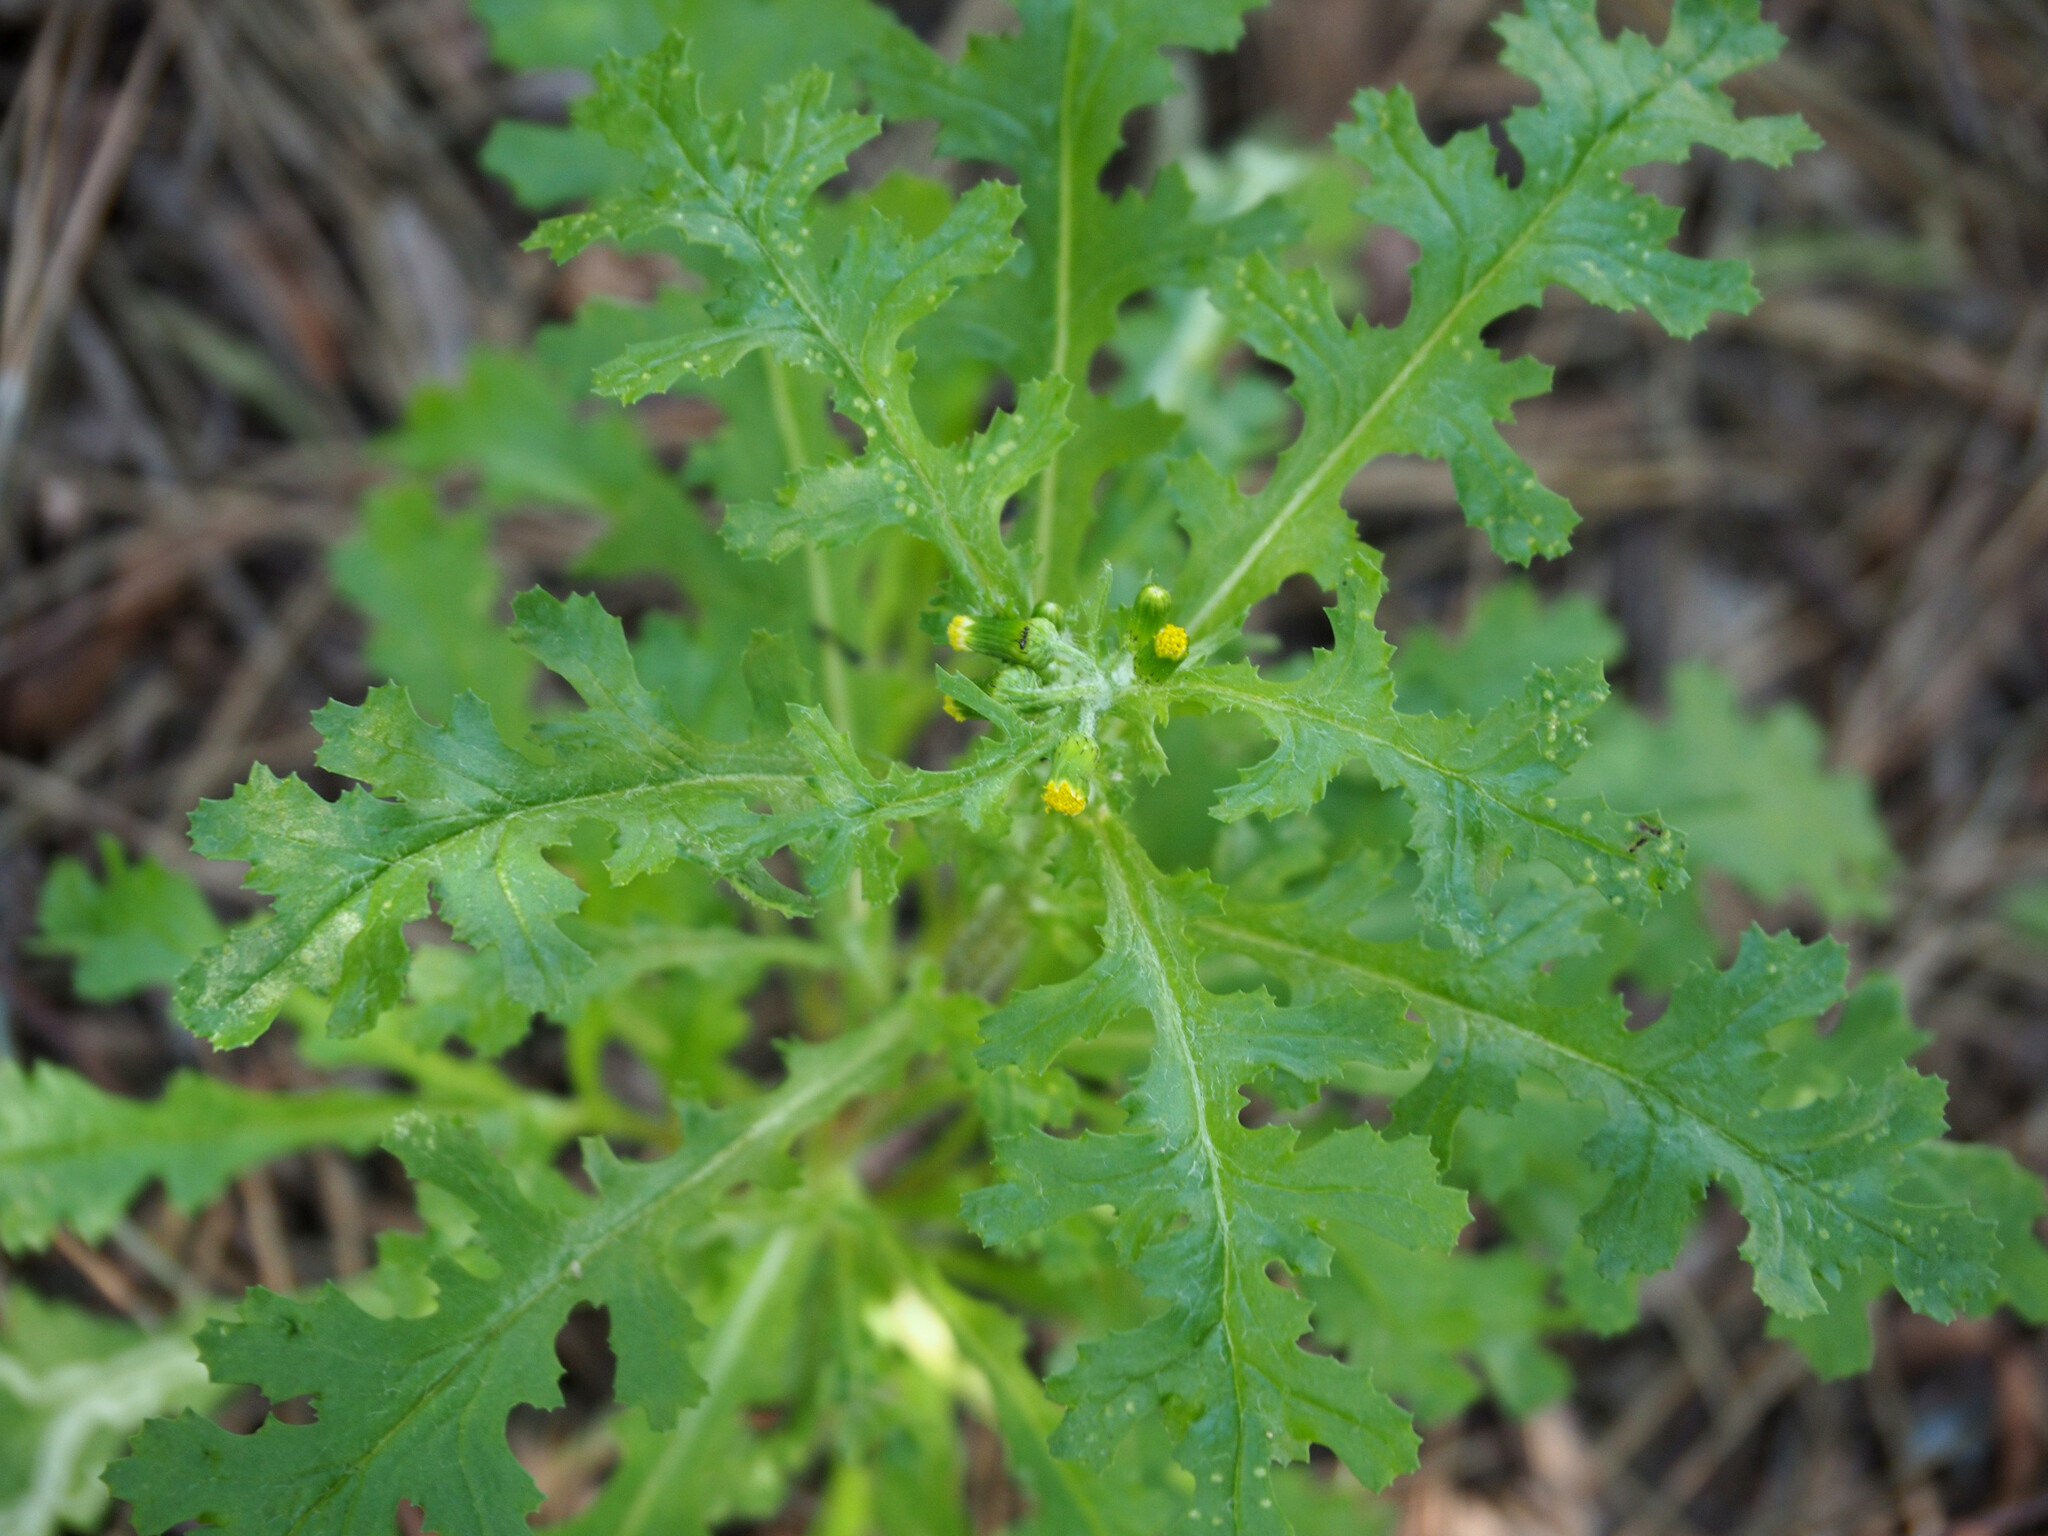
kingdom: Plantae
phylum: Tracheophyta
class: Magnoliopsida
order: Asterales
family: Asteraceae
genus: Senecio
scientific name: Senecio vulgaris
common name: Old-man-in-the-spring
